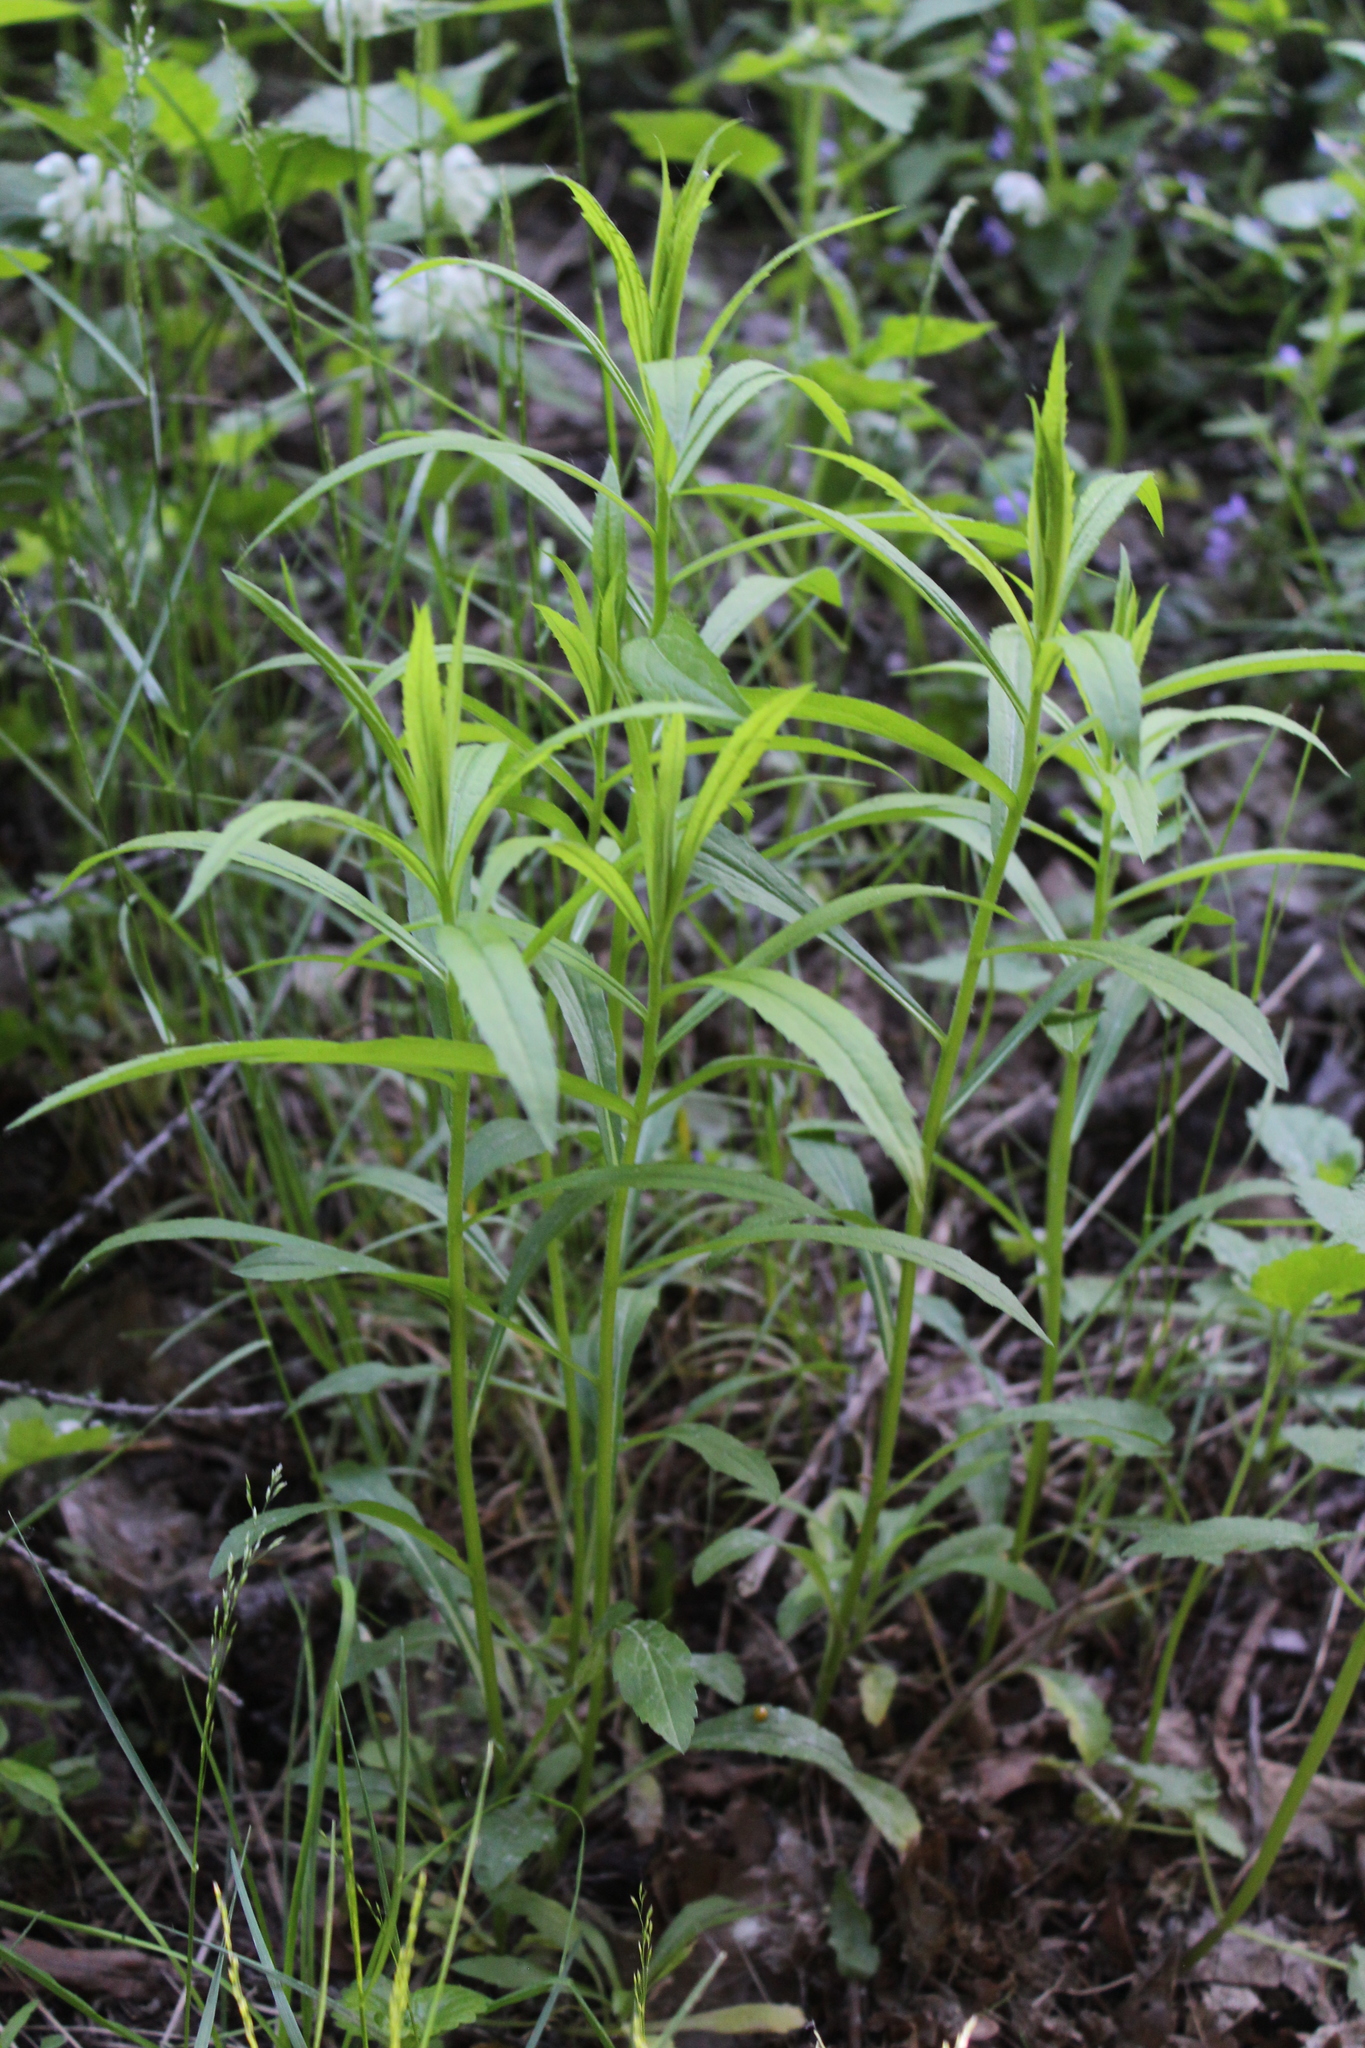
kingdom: Plantae
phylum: Tracheophyta
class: Magnoliopsida
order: Asterales
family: Asteraceae
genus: Solidago
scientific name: Solidago canadensis
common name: Canada goldenrod
